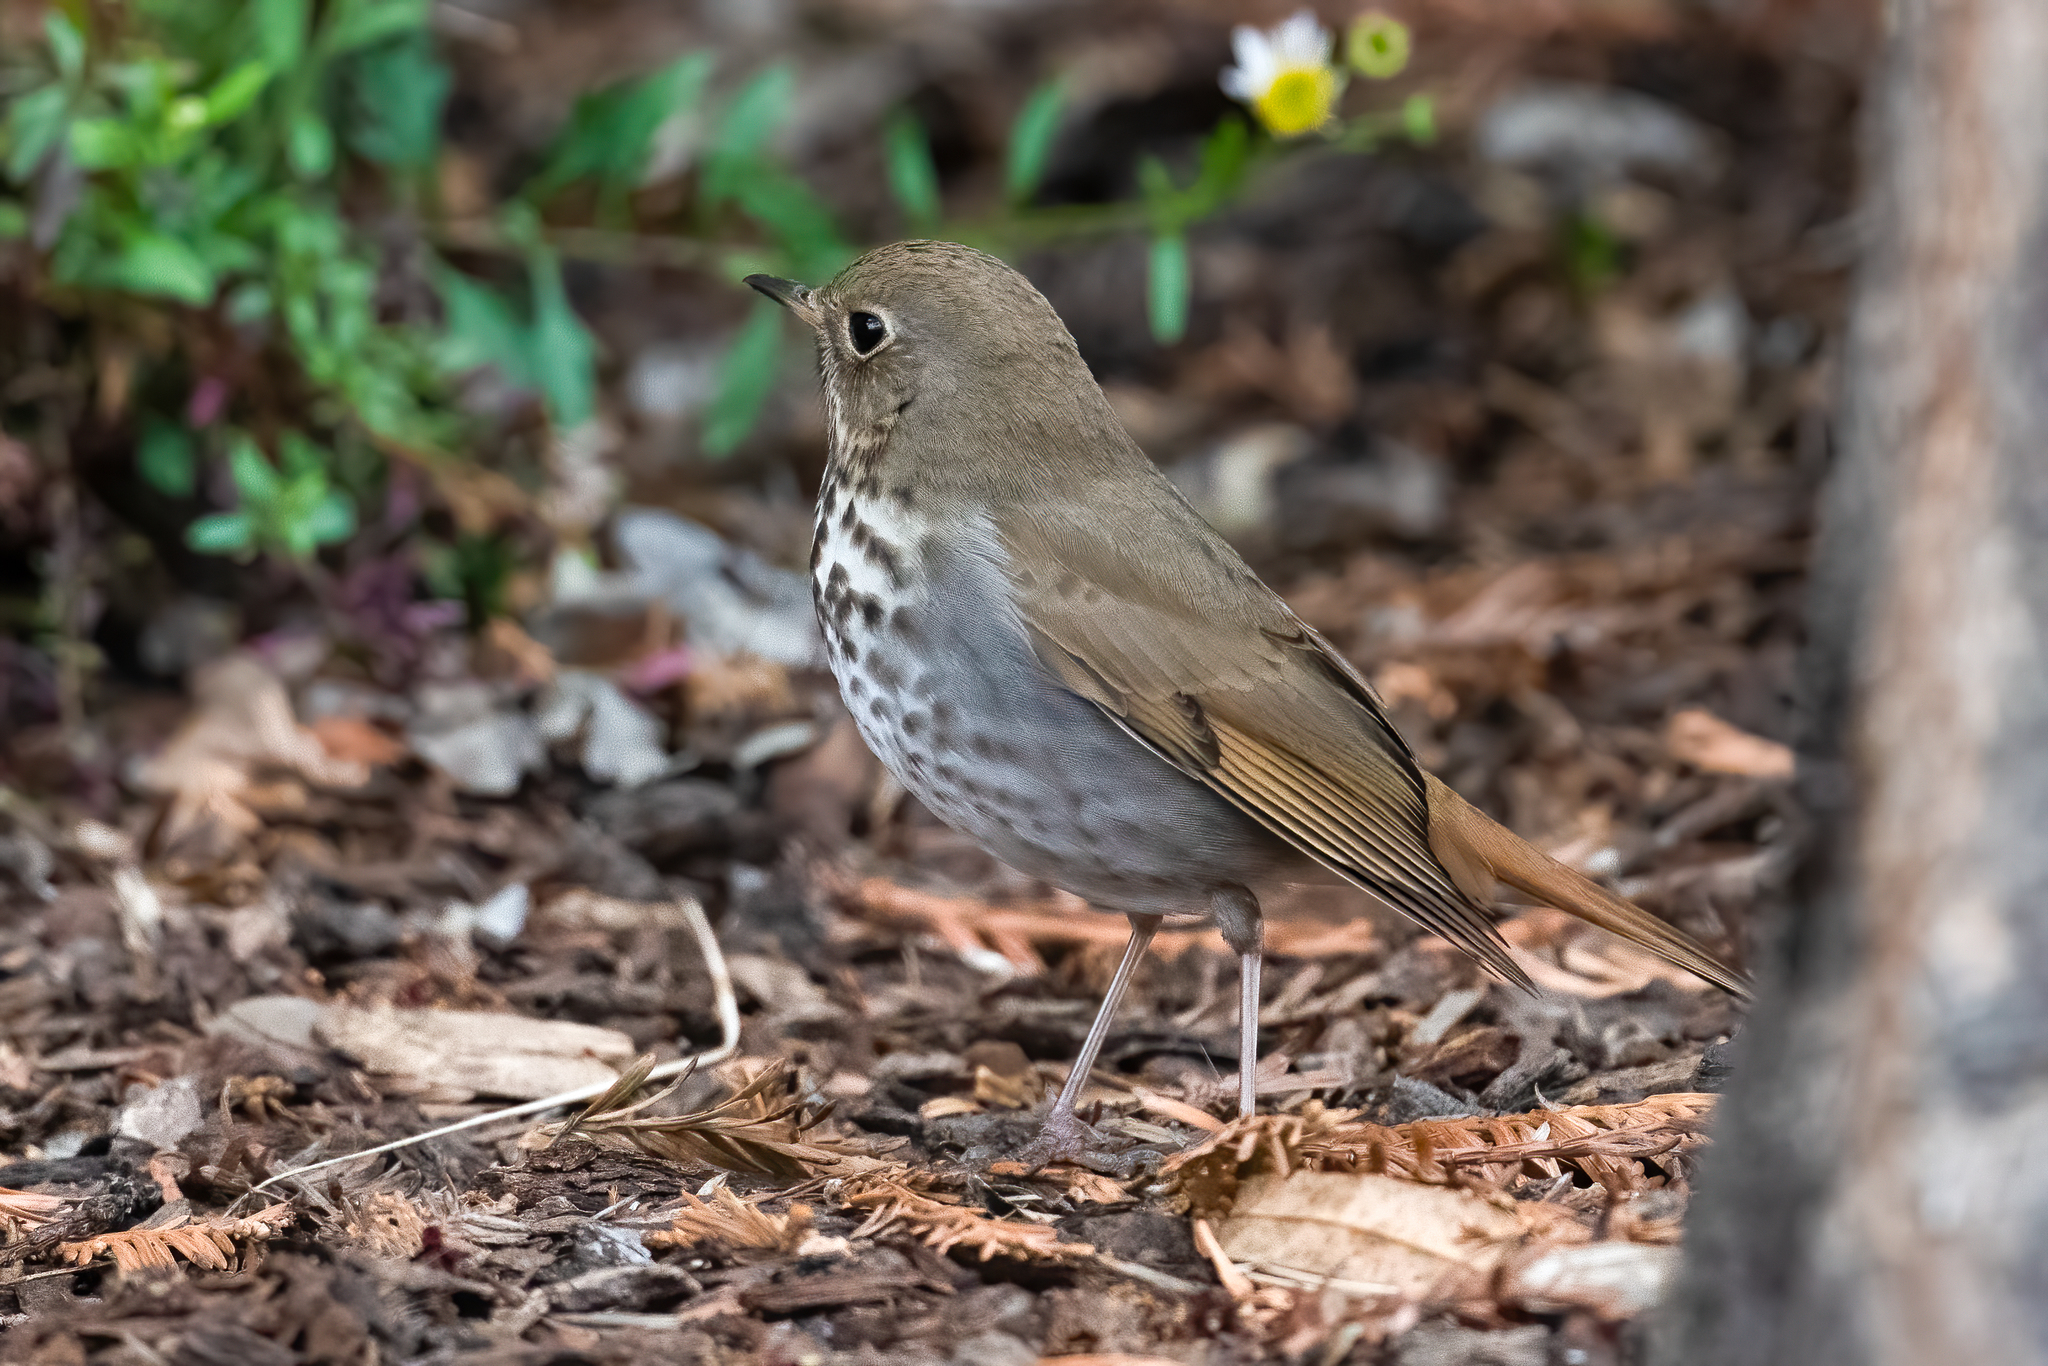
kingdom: Animalia
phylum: Chordata
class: Aves
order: Passeriformes
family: Turdidae
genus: Catharus
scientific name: Catharus guttatus
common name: Hermit thrush
